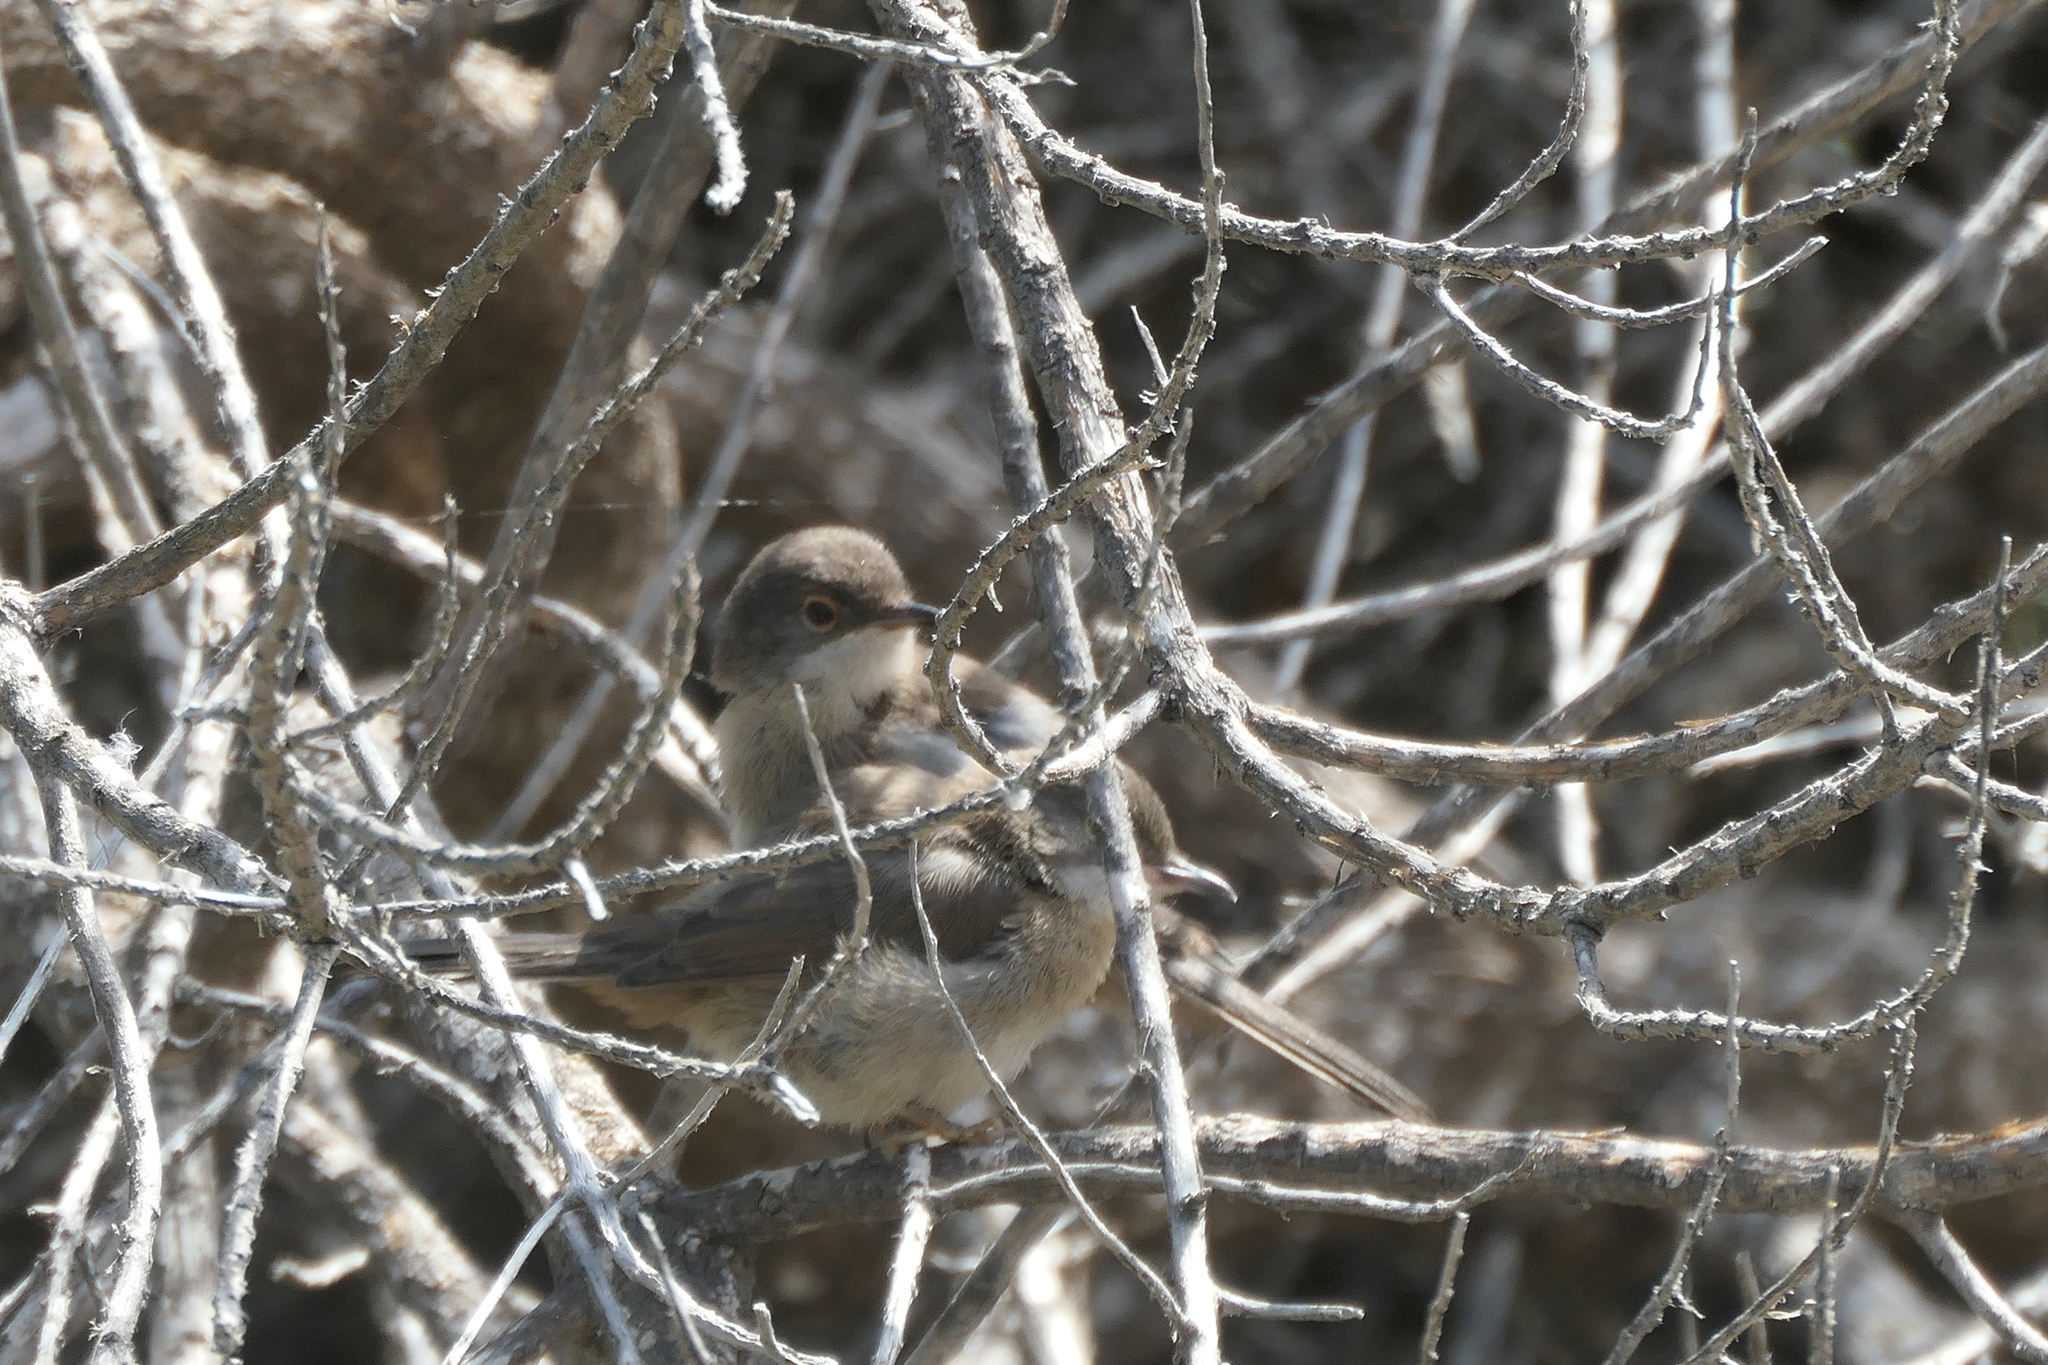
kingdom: Animalia
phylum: Chordata
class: Aves
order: Passeriformes
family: Sylviidae
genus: Curruca
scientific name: Curruca melanocephala
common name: Sardinian warbler
